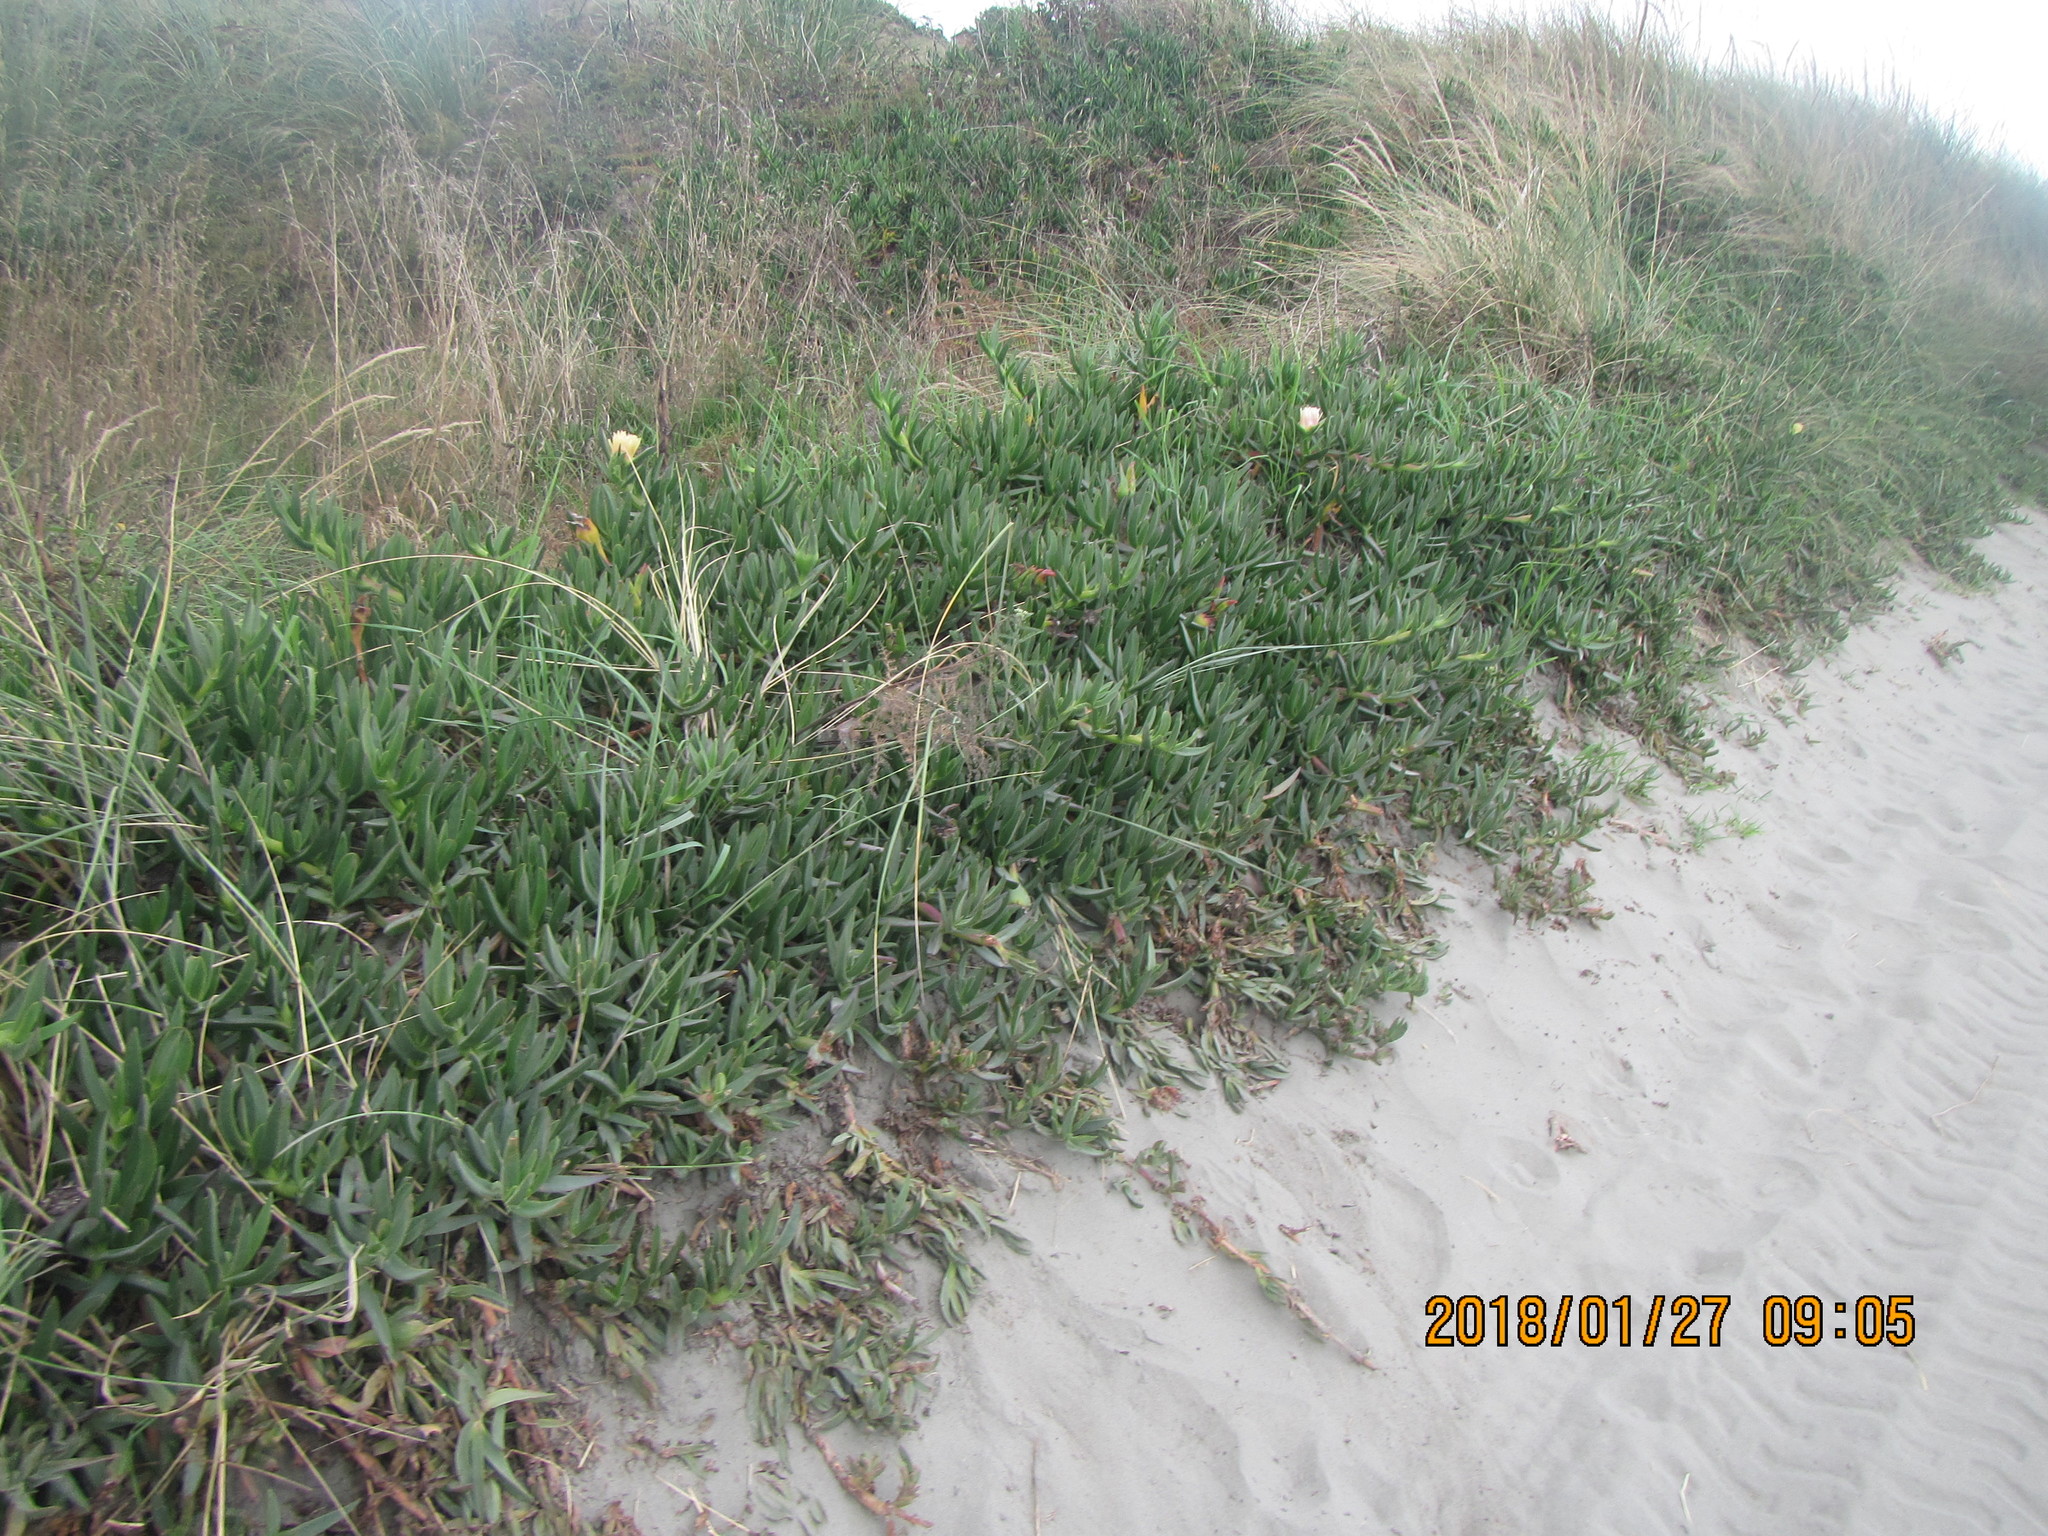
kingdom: Plantae
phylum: Tracheophyta
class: Magnoliopsida
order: Caryophyllales
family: Aizoaceae
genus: Carpobrotus
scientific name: Carpobrotus edulis
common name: Hottentot-fig
